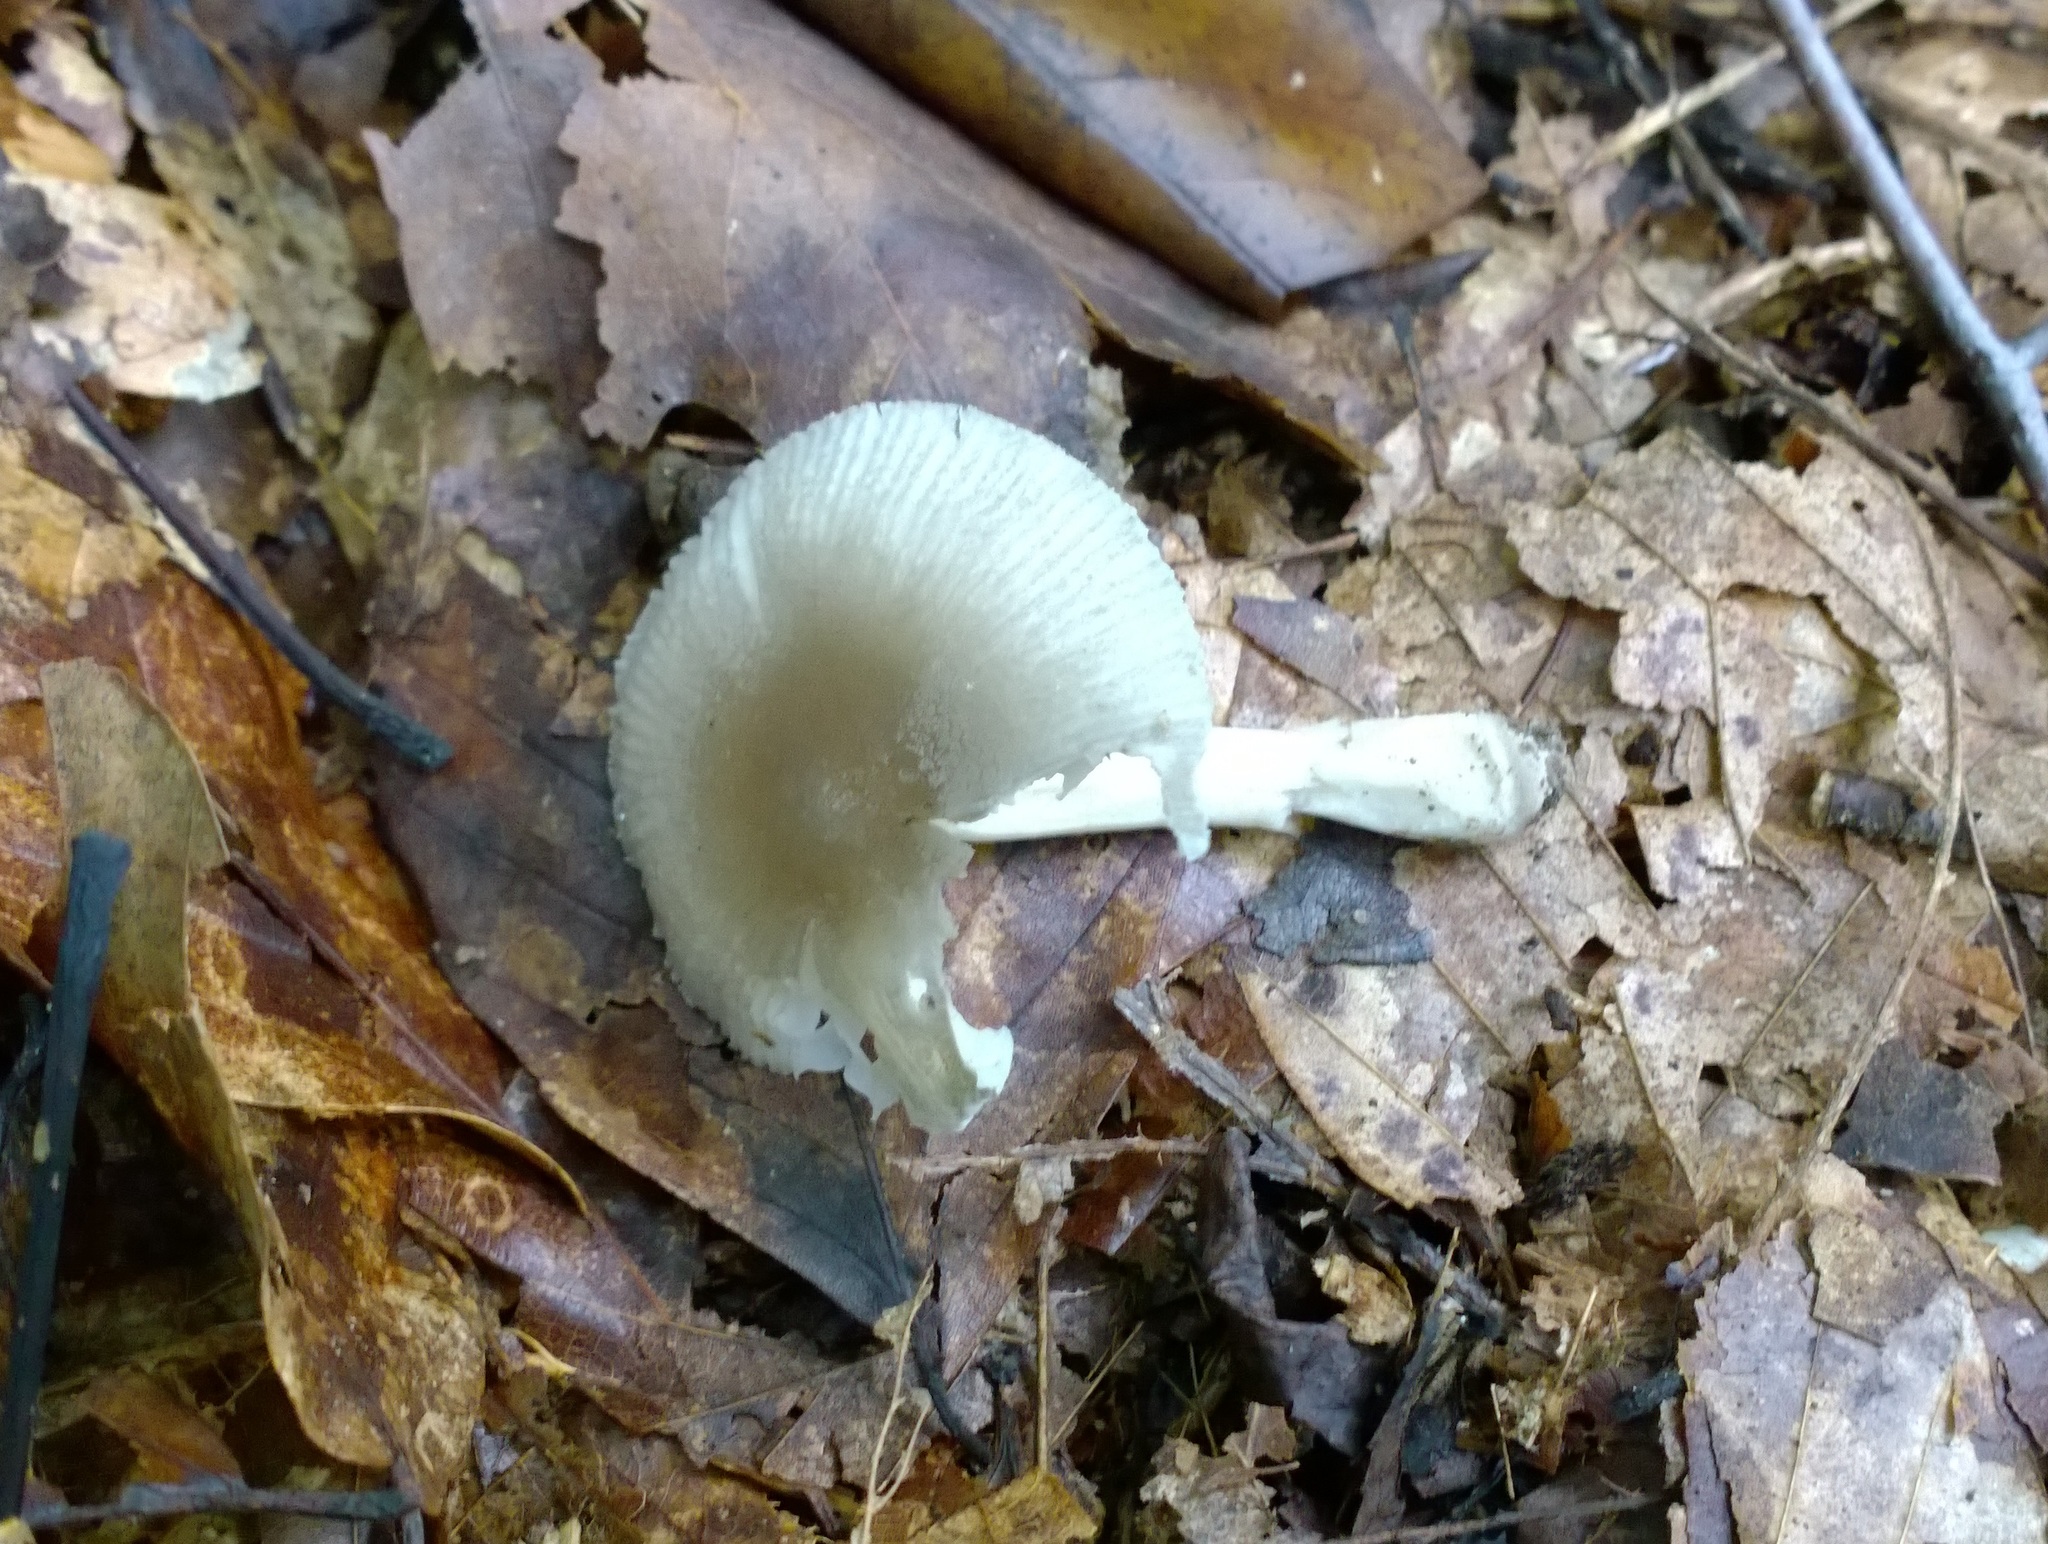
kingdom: Fungi
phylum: Basidiomycota
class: Agaricomycetes
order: Agaricales
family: Amanitaceae
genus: Amanita
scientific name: Amanita farinosa
